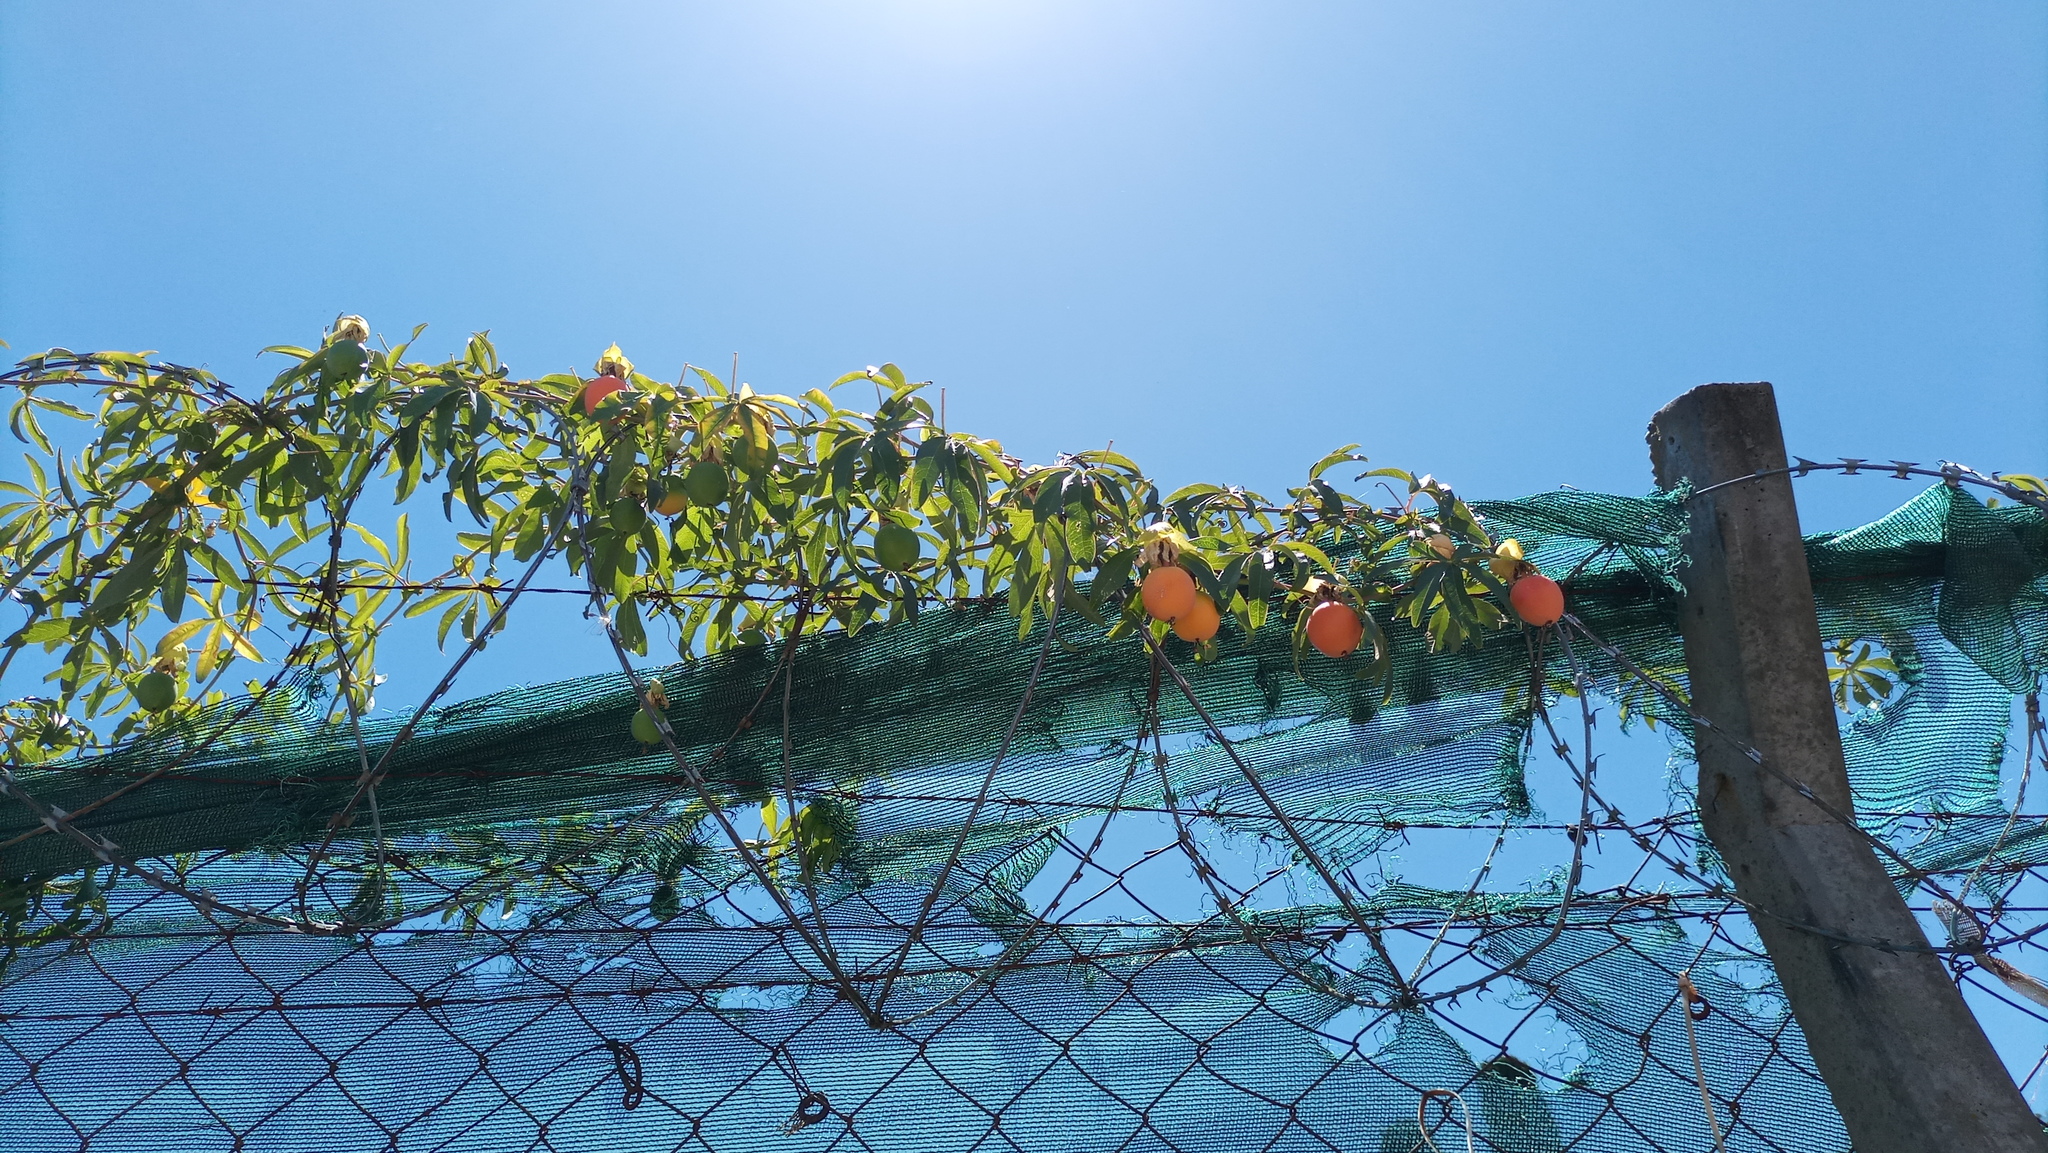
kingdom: Plantae
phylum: Tracheophyta
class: Magnoliopsida
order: Malpighiales
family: Passifloraceae
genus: Passiflora
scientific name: Passiflora caerulea
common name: Blue passionflower
